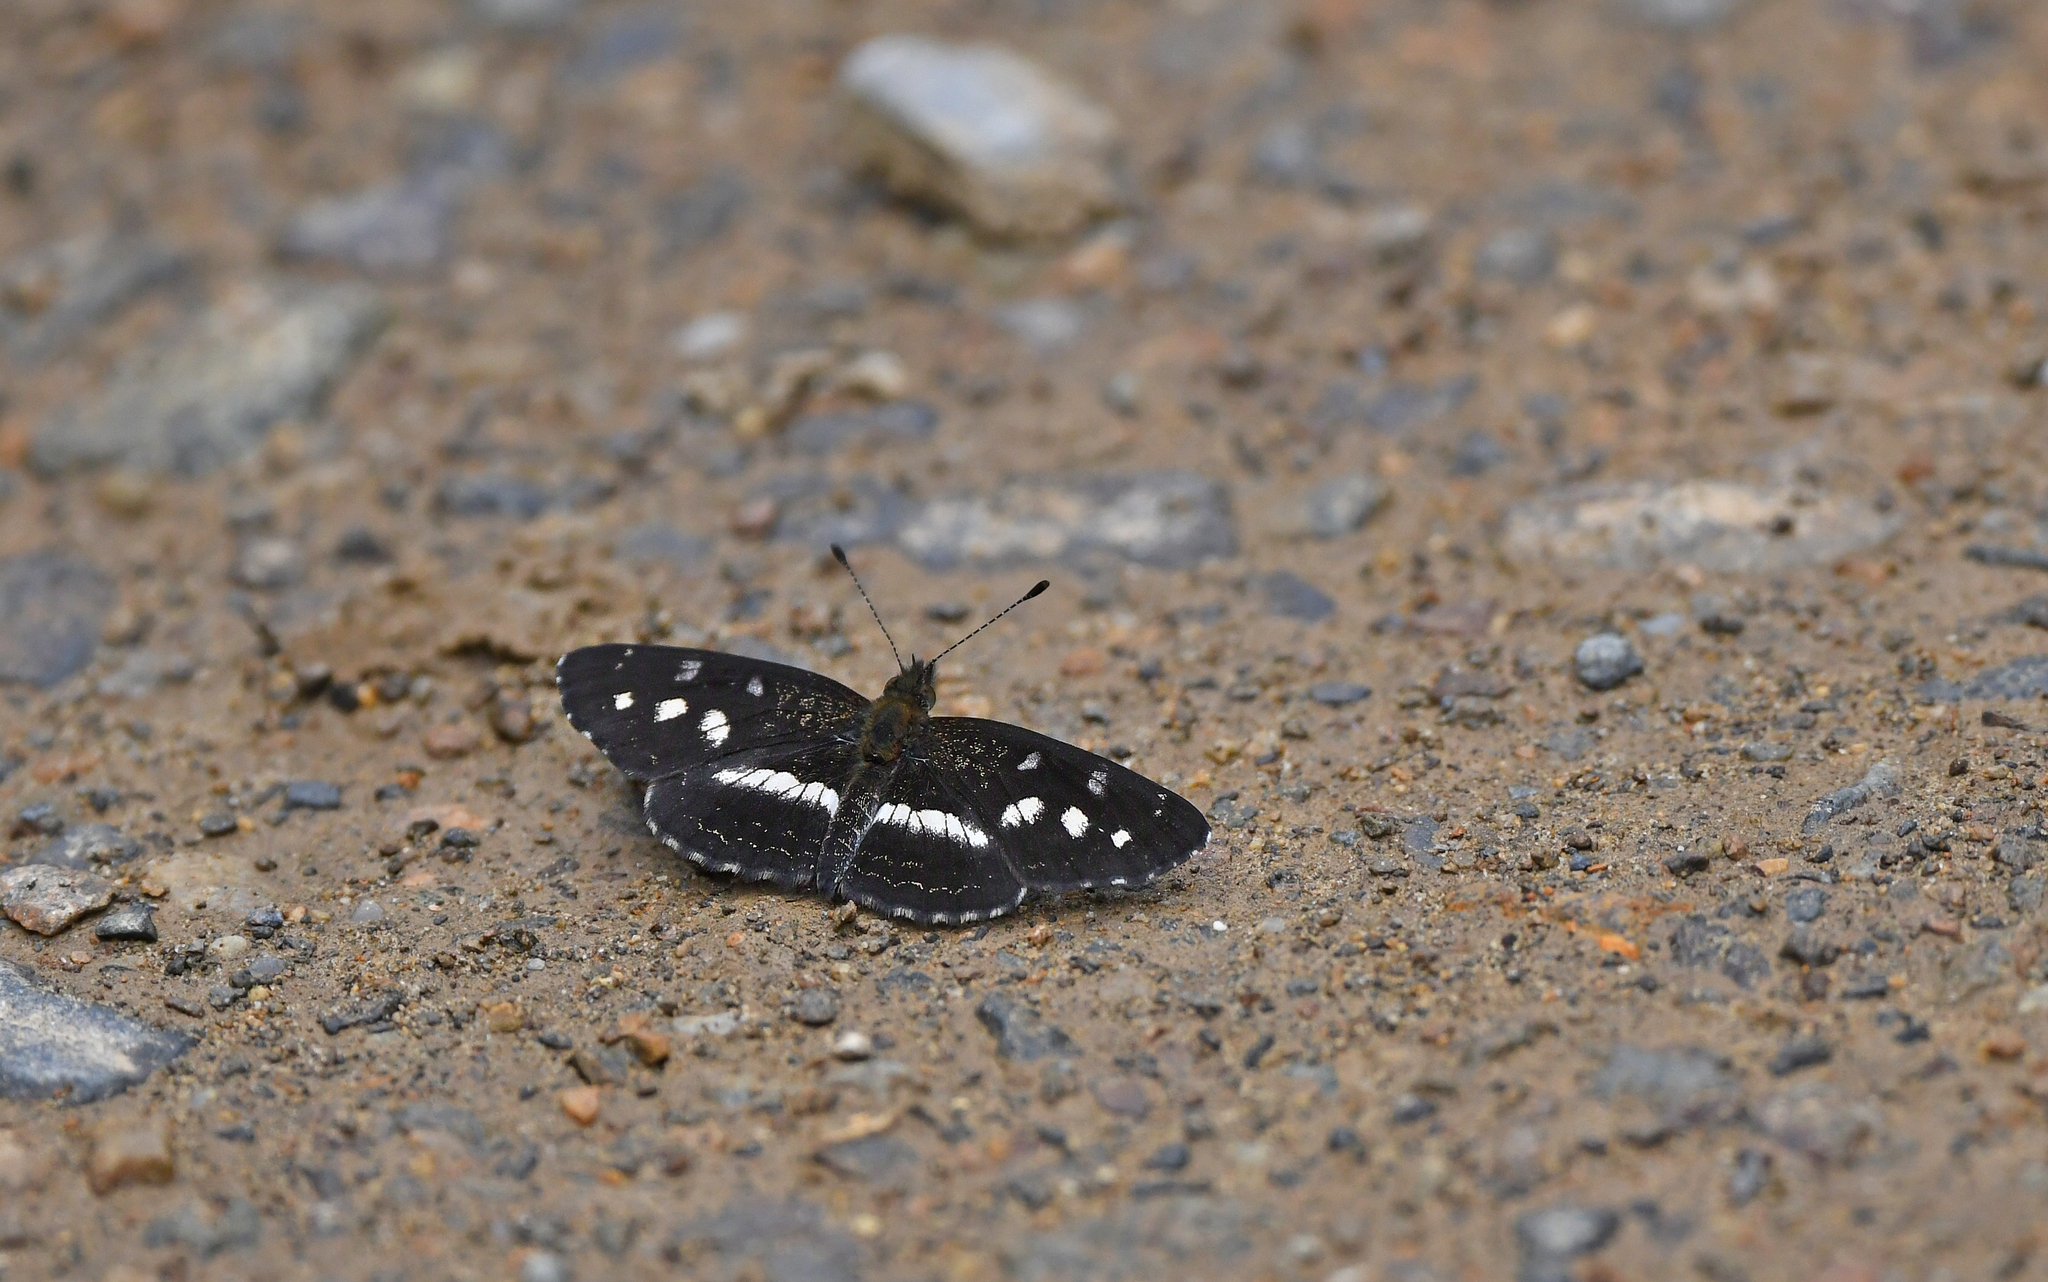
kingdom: Animalia
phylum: Arthropoda
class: Insecta
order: Lepidoptera
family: Nymphalidae
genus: Dagon
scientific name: Dagon pusilla
